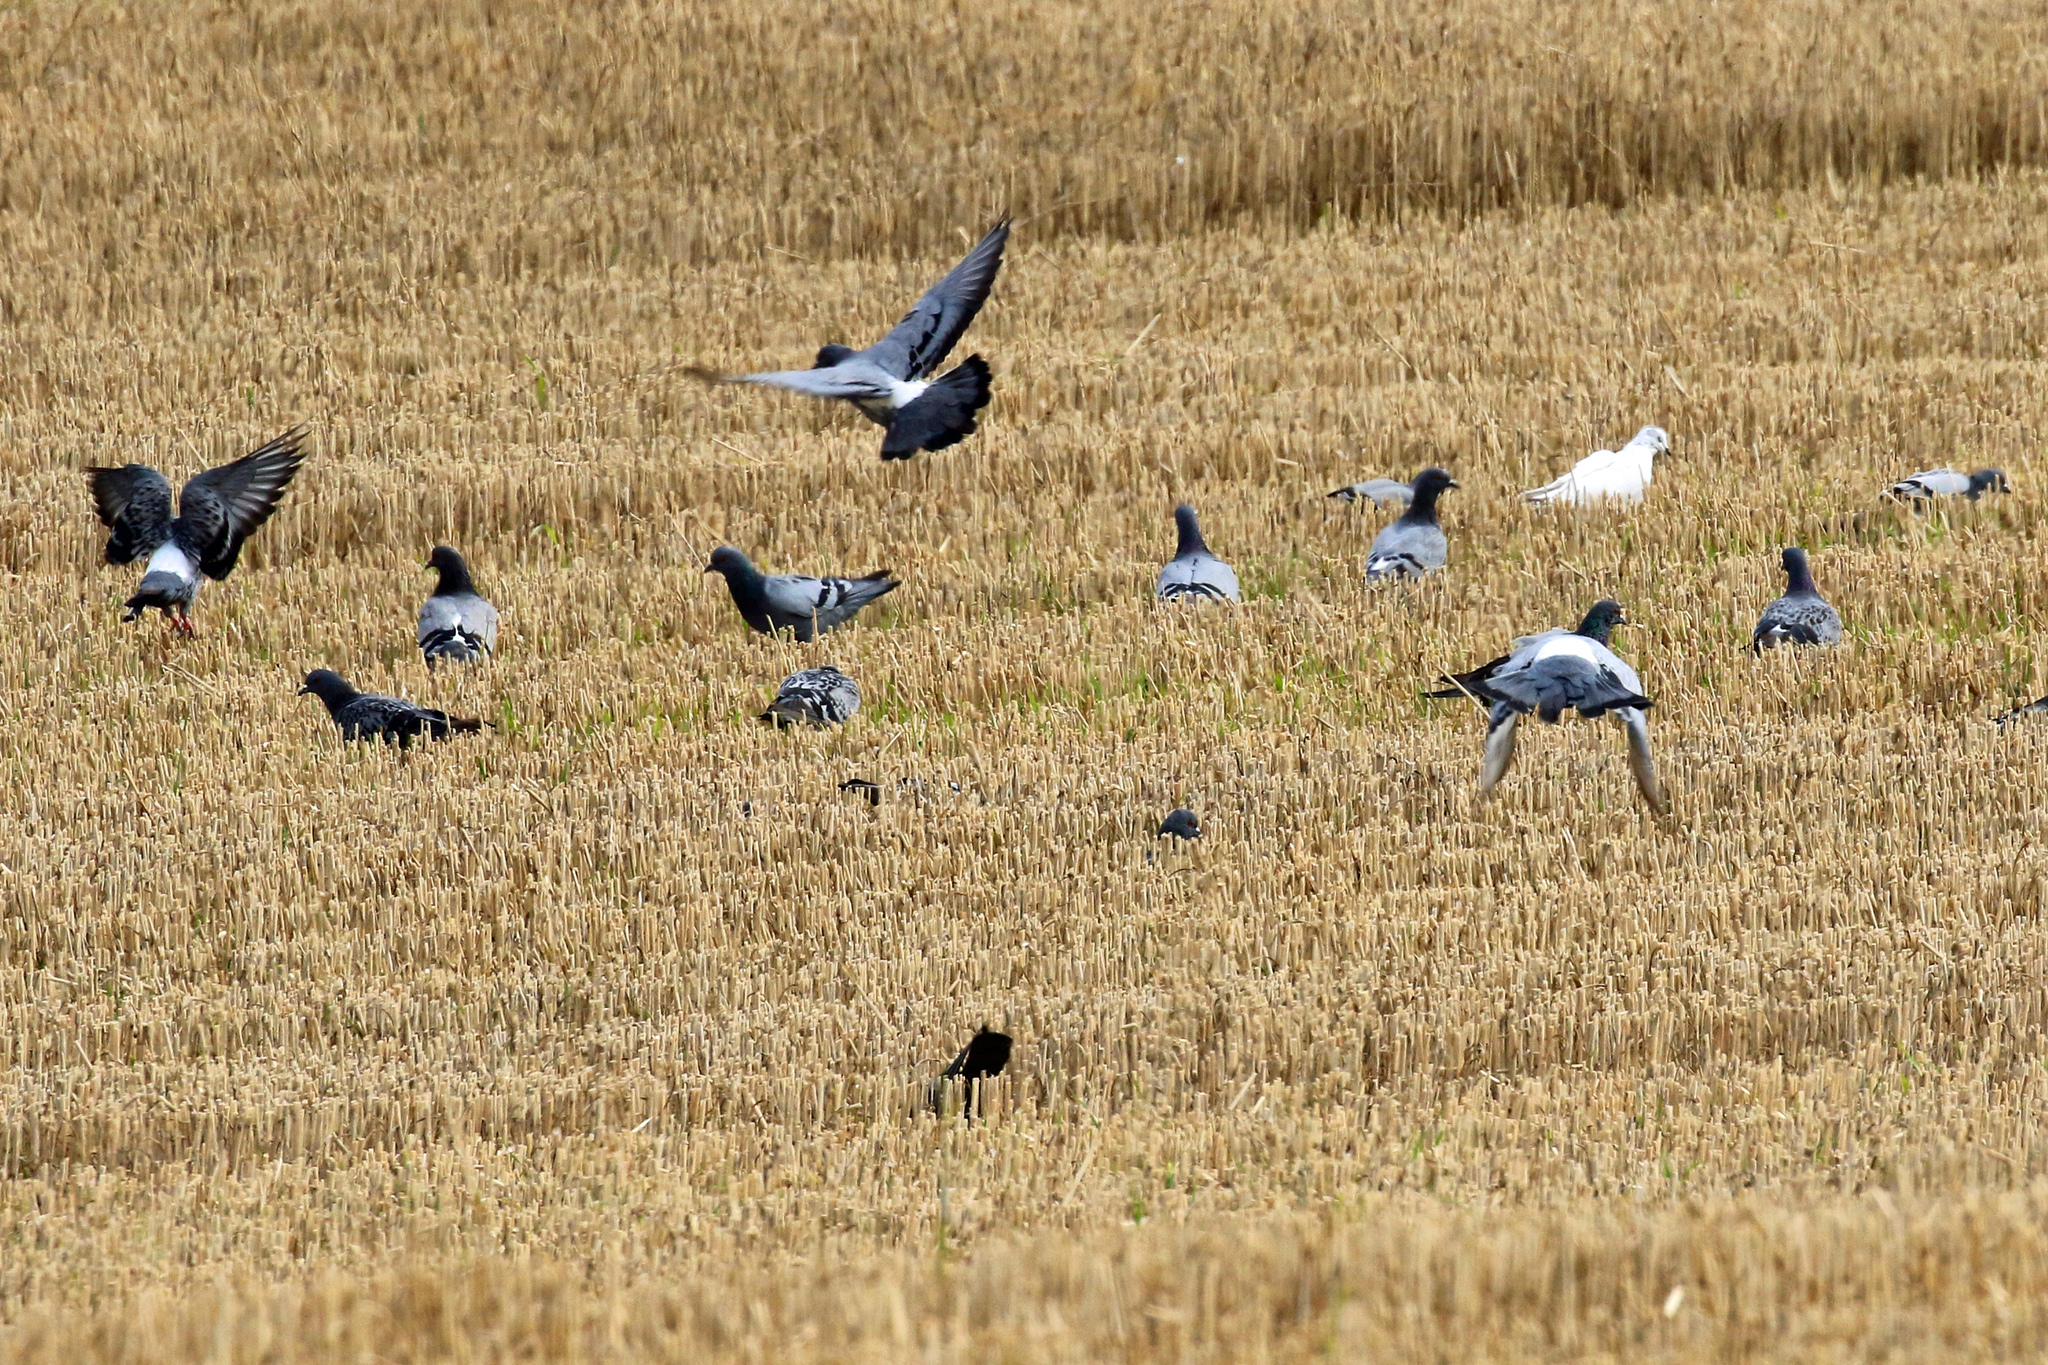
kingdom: Animalia
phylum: Chordata
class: Aves
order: Columbiformes
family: Columbidae
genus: Columba
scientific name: Columba livia
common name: Rock pigeon
